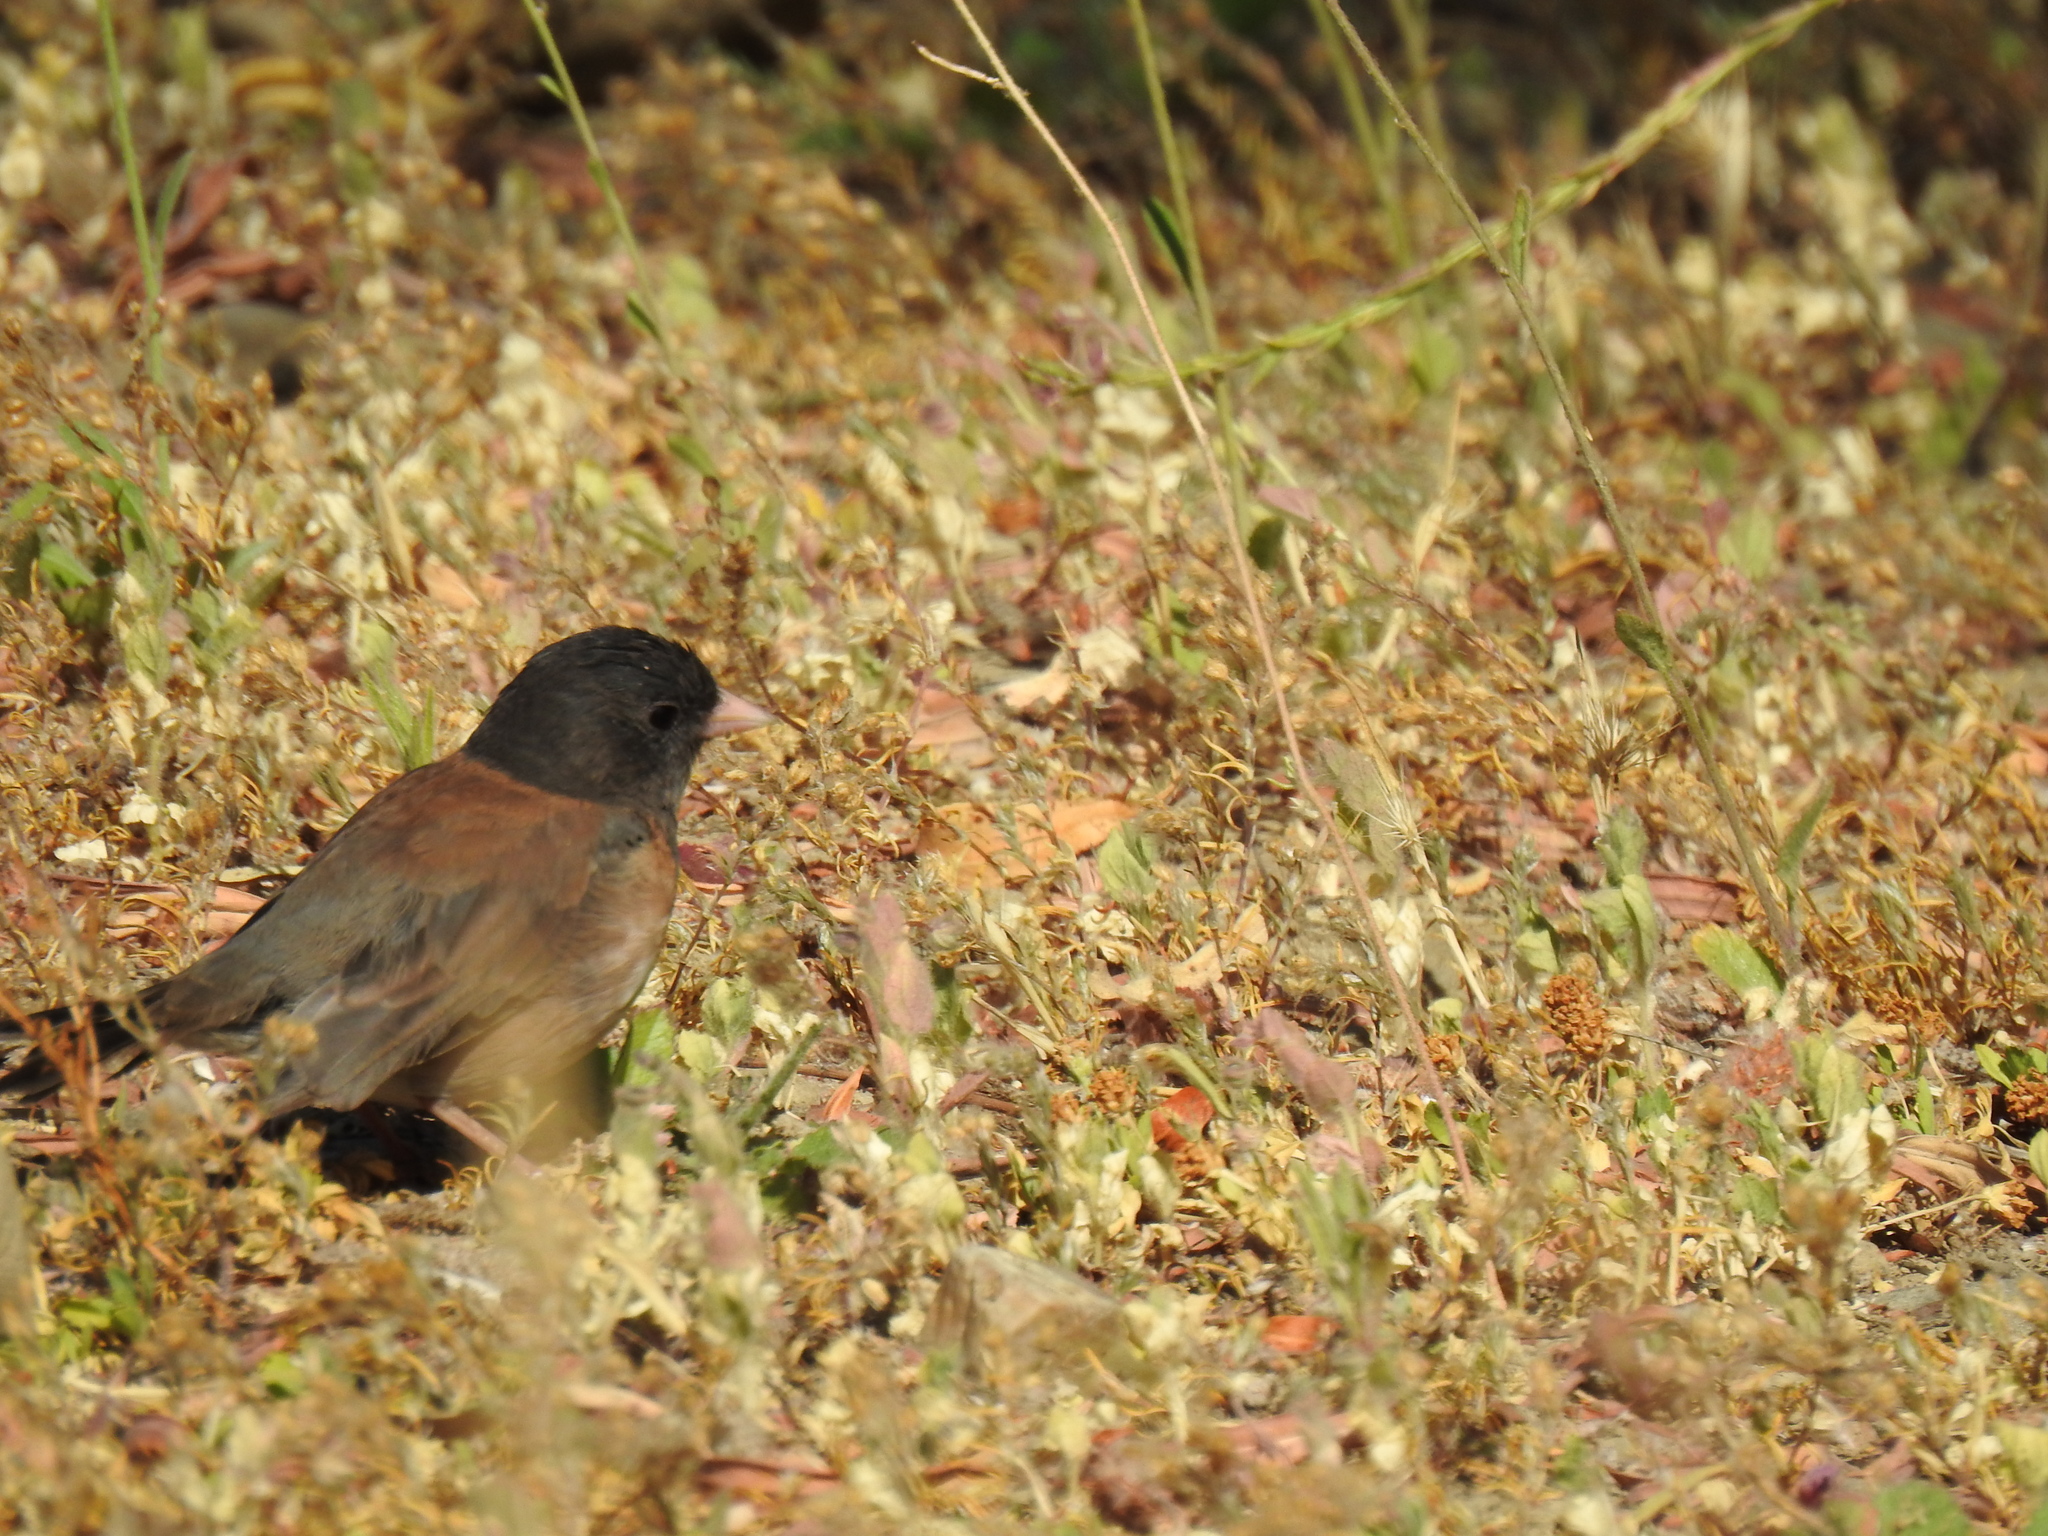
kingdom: Animalia
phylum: Chordata
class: Aves
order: Passeriformes
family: Passerellidae
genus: Junco
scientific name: Junco hyemalis
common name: Dark-eyed junco
